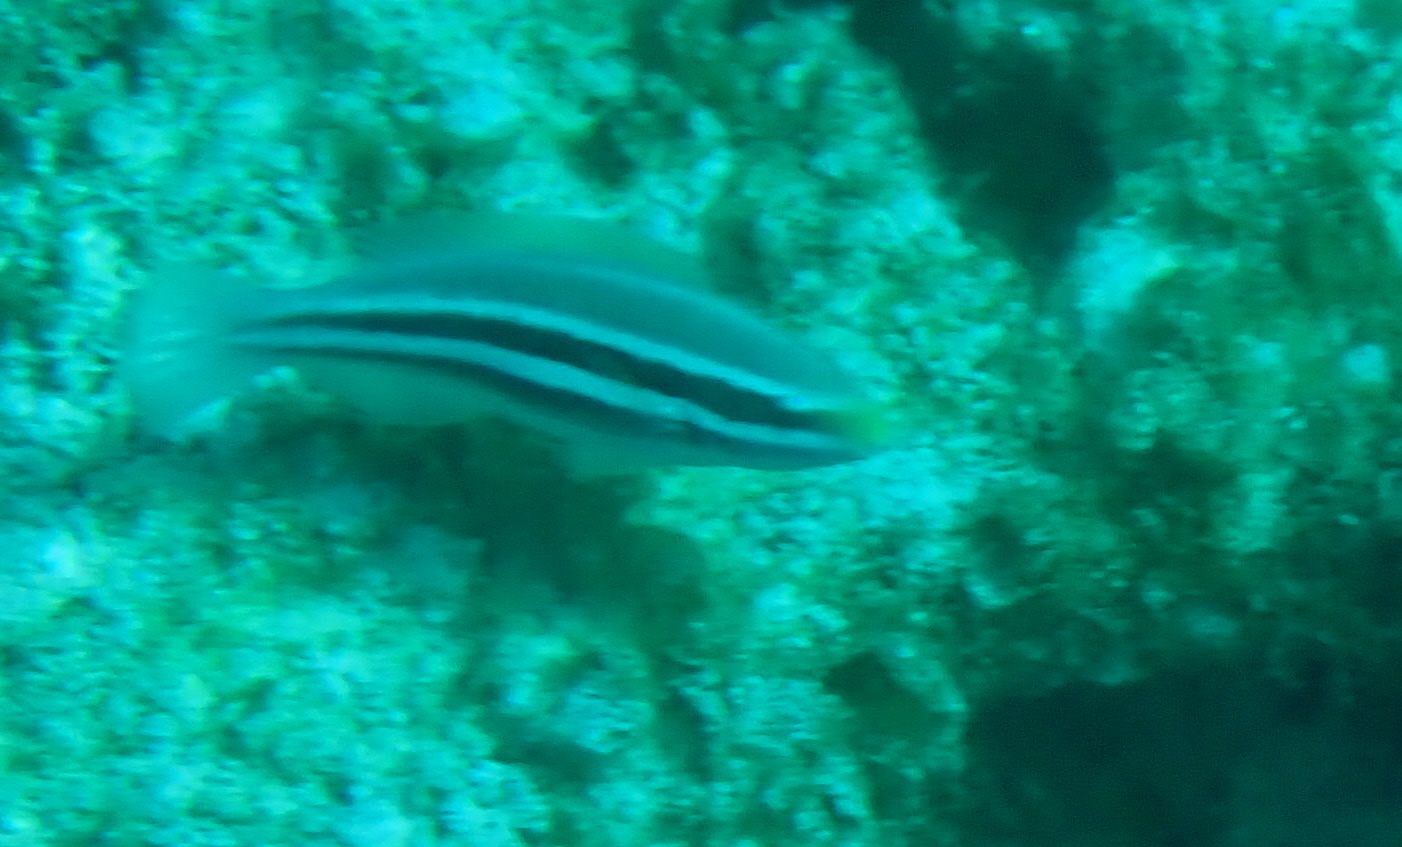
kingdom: Animalia
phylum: Chordata
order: Perciformes
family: Scaridae
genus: Scarus
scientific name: Scarus iseri
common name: Striped parrotfish
